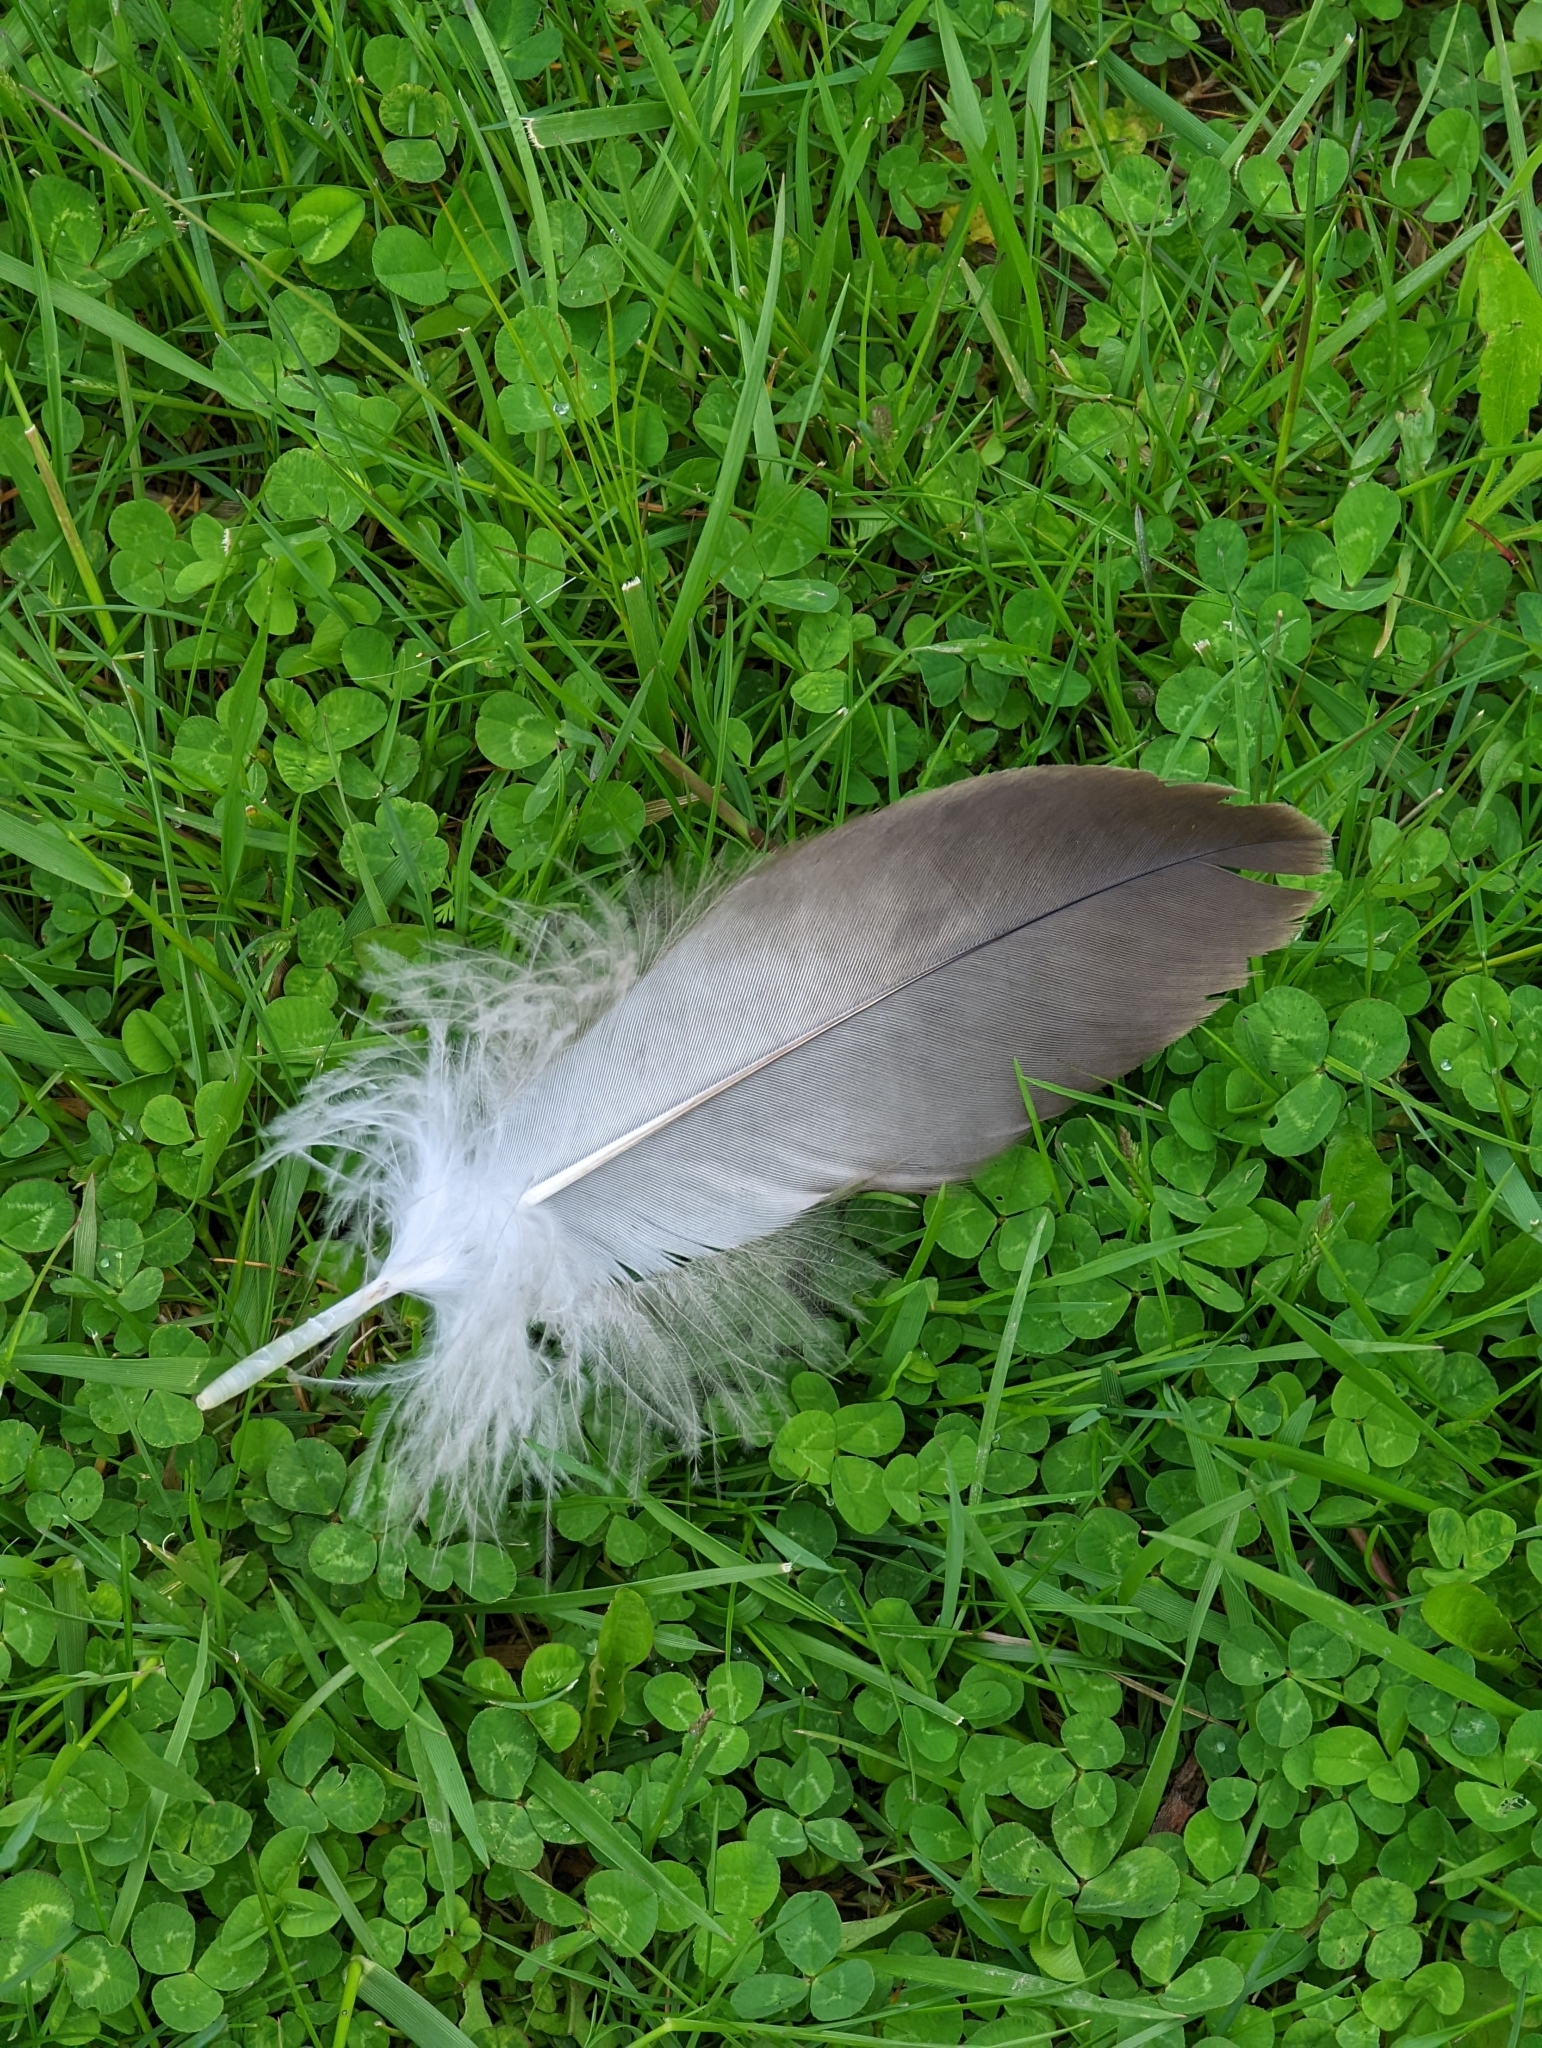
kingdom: Animalia
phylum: Chordata
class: Aves
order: Accipitriformes
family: Accipitridae
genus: Haliaeetus
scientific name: Haliaeetus leucocephalus
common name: Bald eagle
